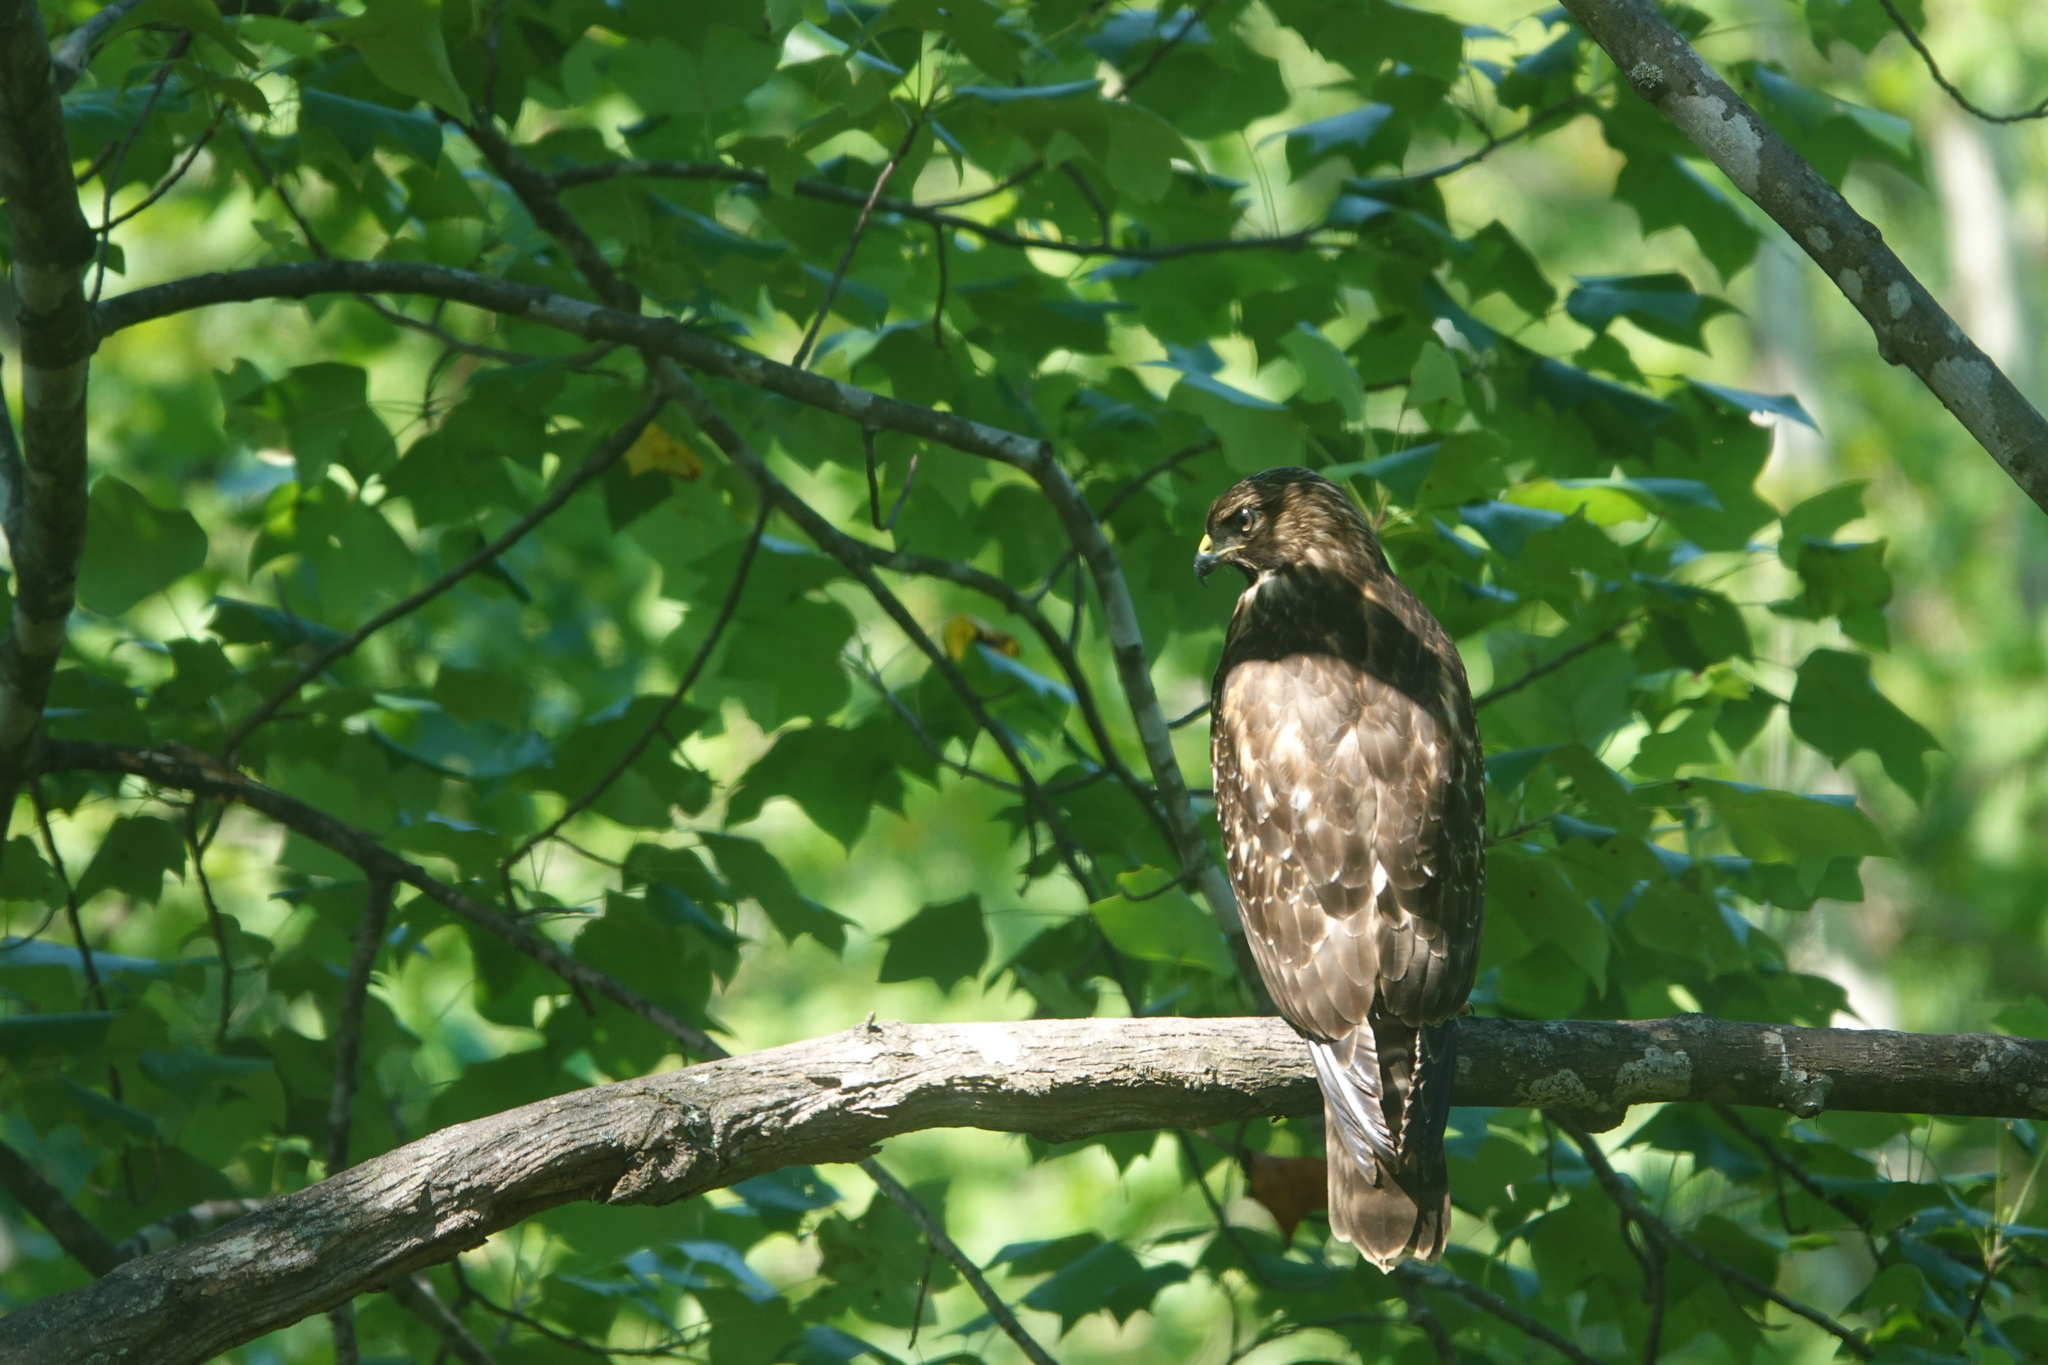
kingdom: Animalia
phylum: Chordata
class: Aves
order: Accipitriformes
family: Accipitridae
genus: Buteo
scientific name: Buteo lineatus
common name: Red-shouldered hawk
